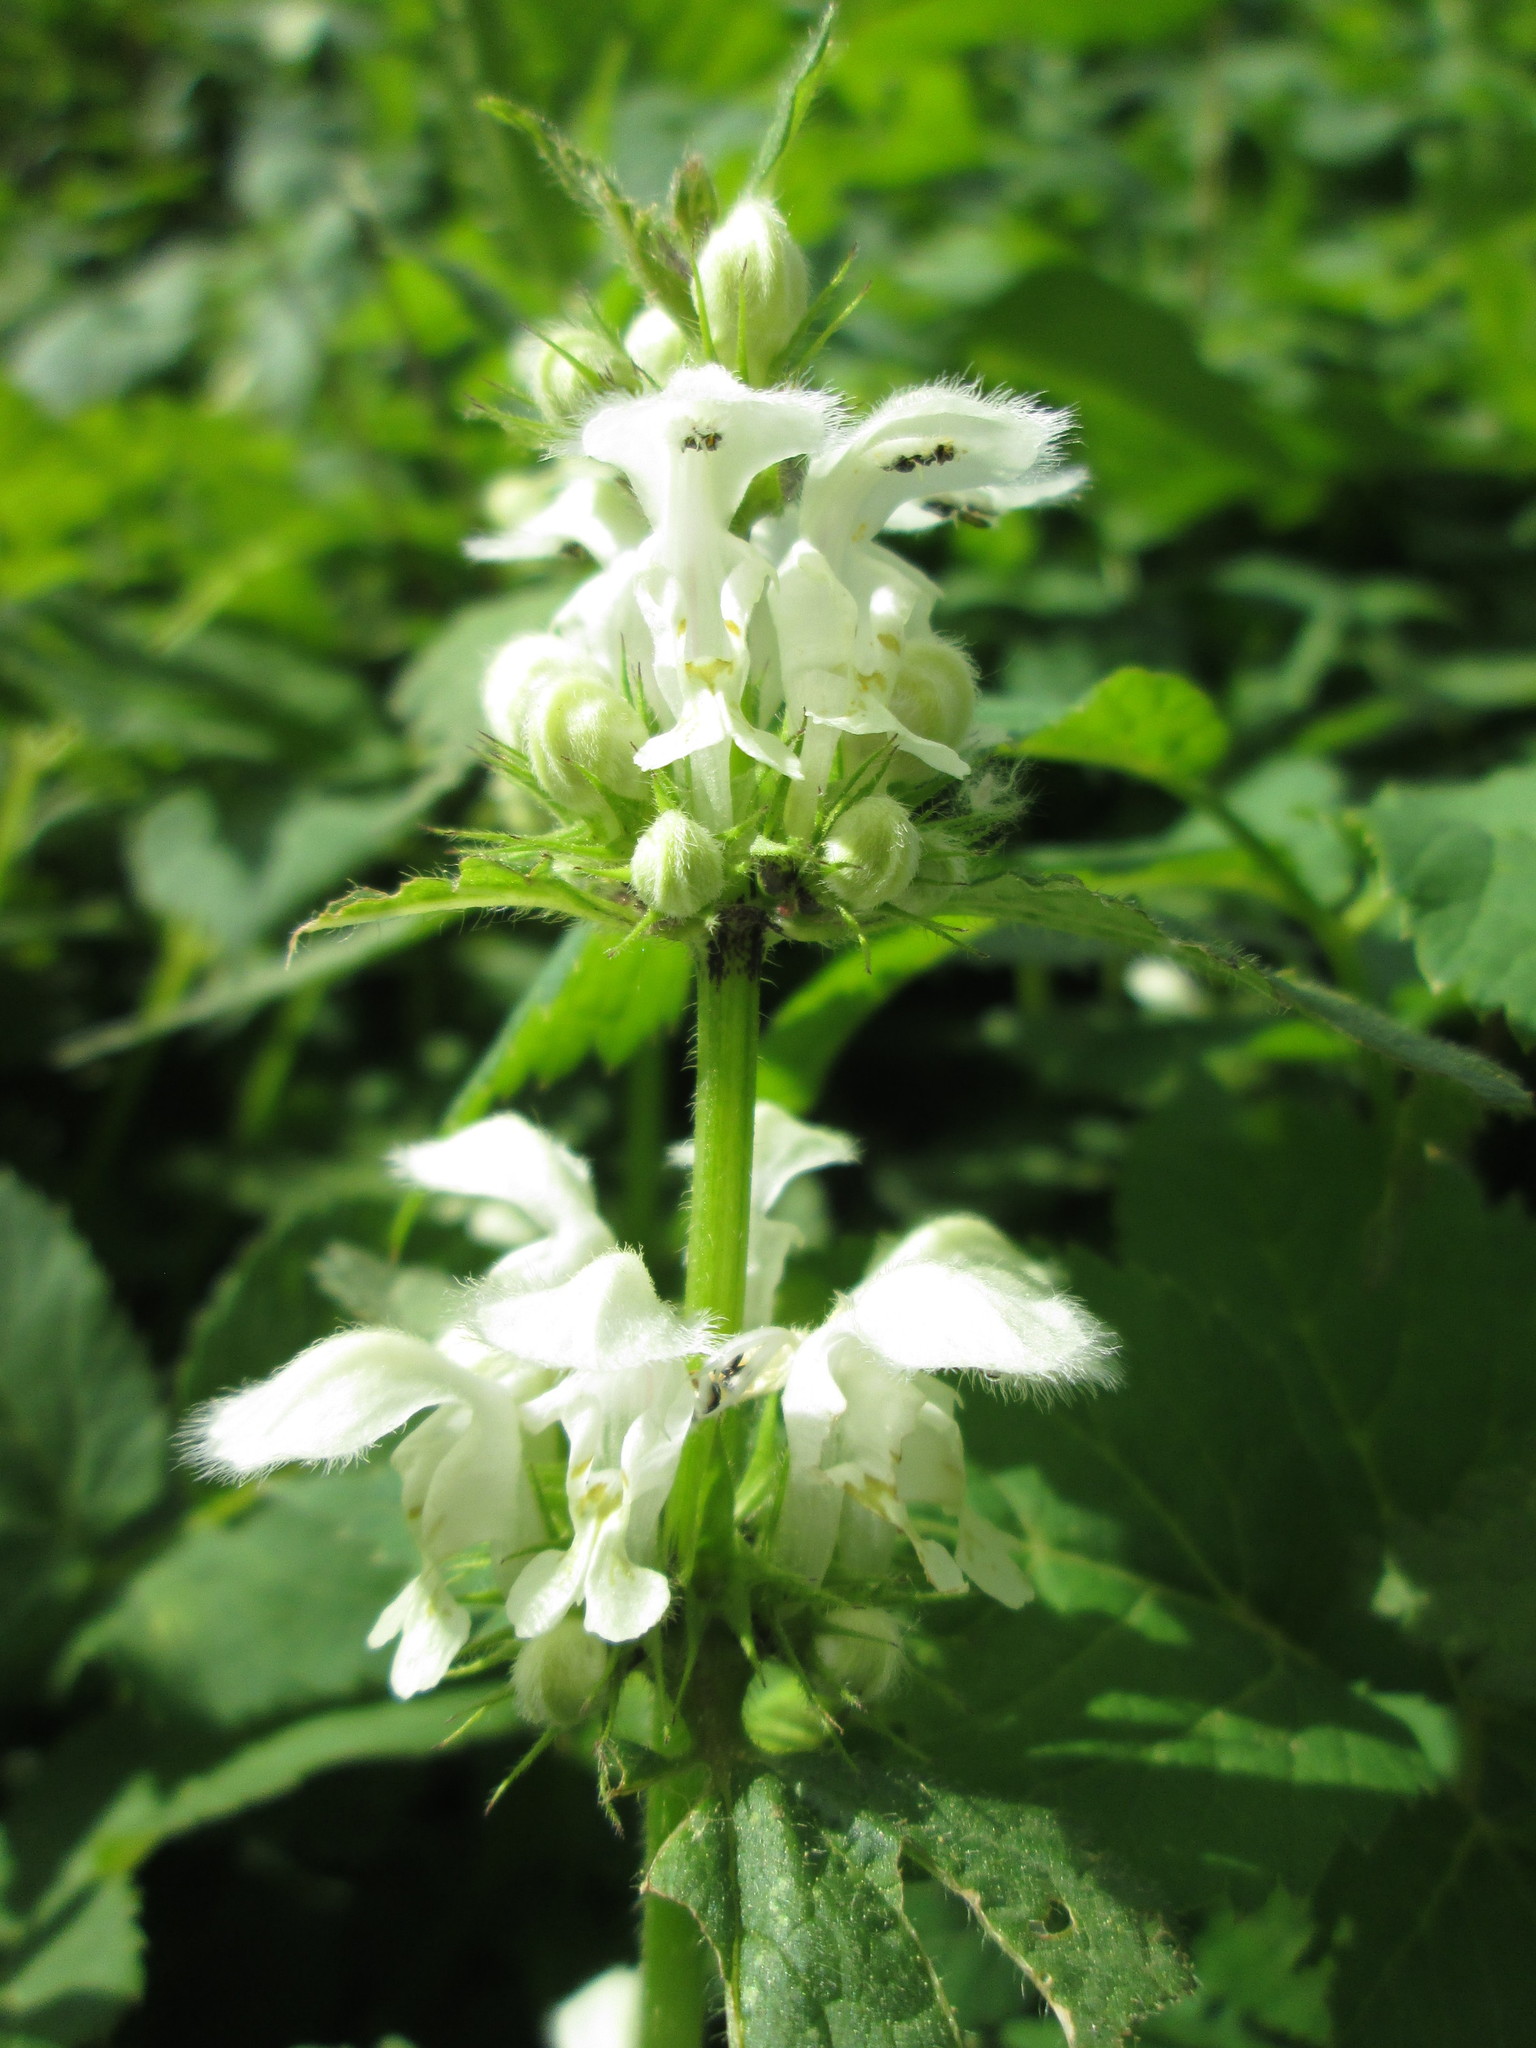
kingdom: Plantae
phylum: Tracheophyta
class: Magnoliopsida
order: Lamiales
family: Lamiaceae
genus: Lamium
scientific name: Lamium album
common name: White dead-nettle
